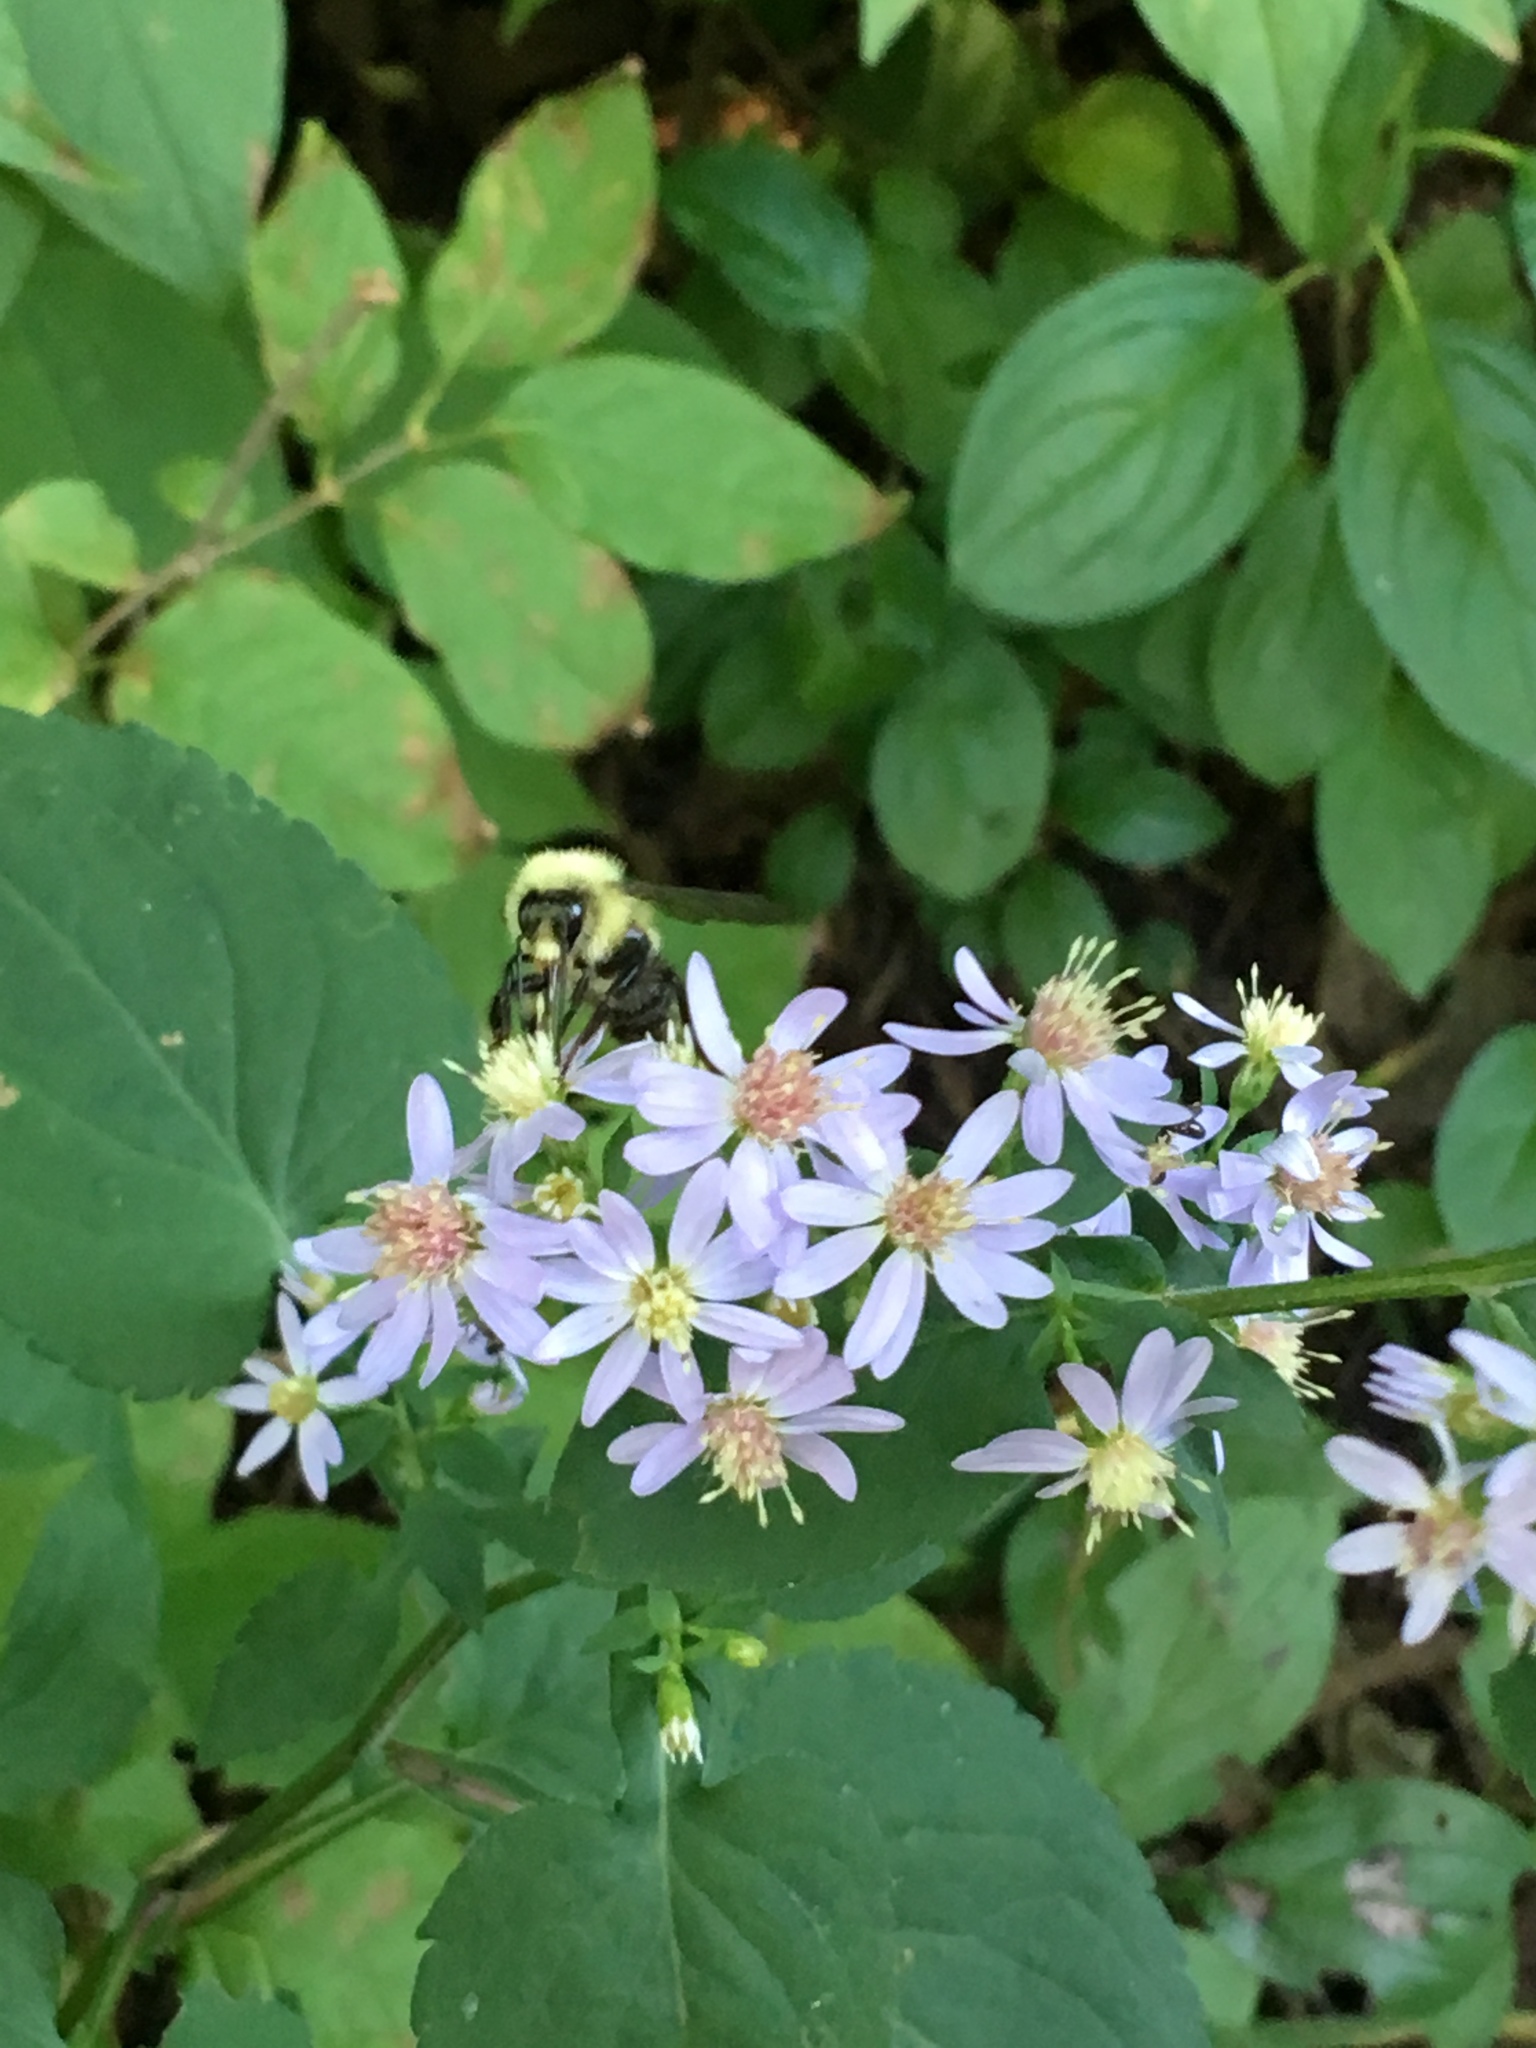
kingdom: Animalia
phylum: Arthropoda
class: Insecta
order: Hymenoptera
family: Apidae
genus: Pyrobombus
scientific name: Pyrobombus
